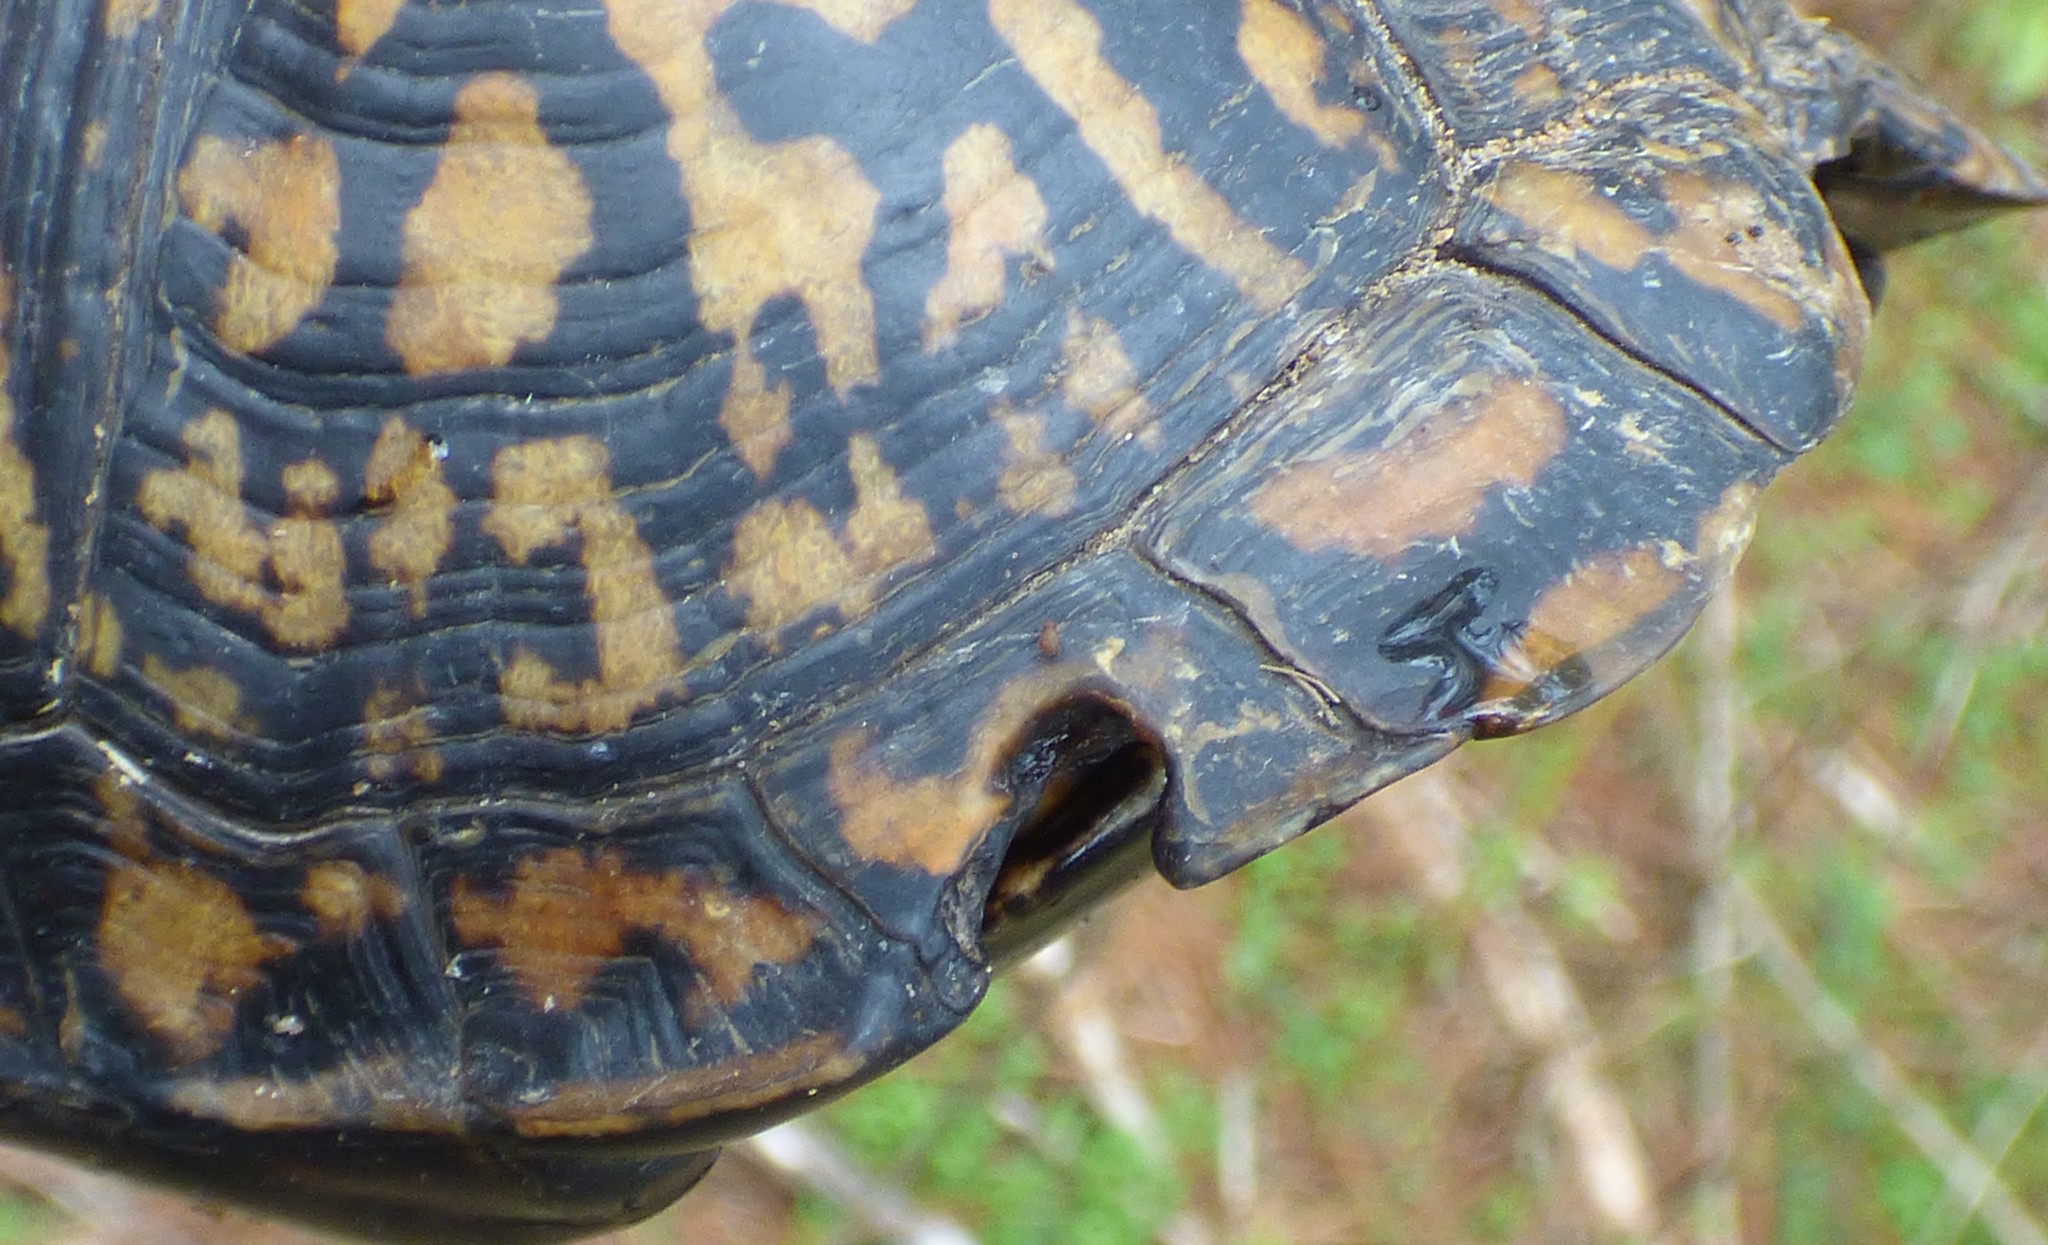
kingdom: Animalia
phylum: Chordata
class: Testudines
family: Emydidae
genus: Terrapene
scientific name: Terrapene carolina
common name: Common box turtle
